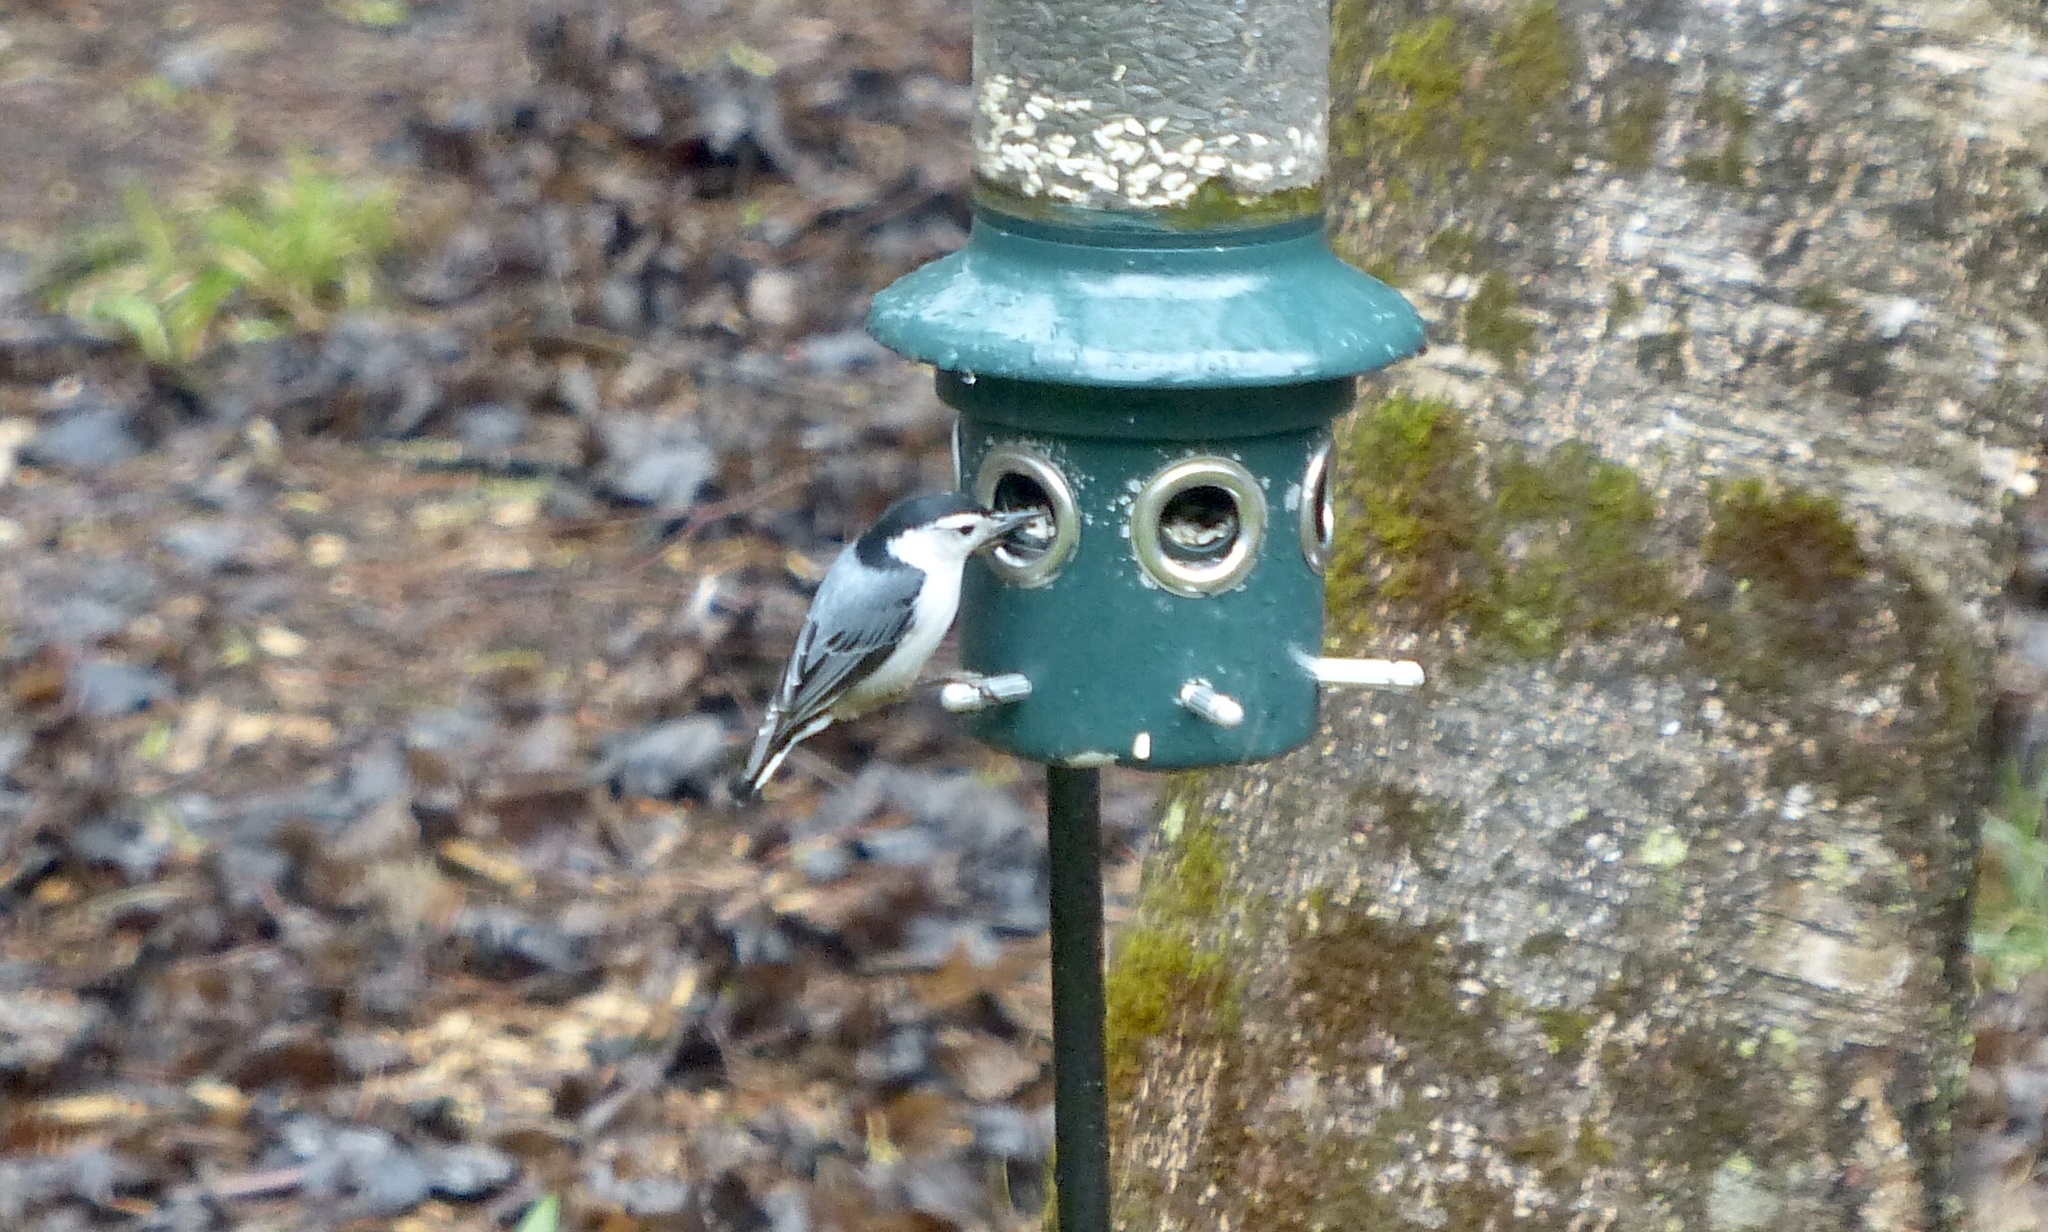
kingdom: Animalia
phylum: Chordata
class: Aves
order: Passeriformes
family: Sittidae
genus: Sitta
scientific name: Sitta carolinensis
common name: White-breasted nuthatch
